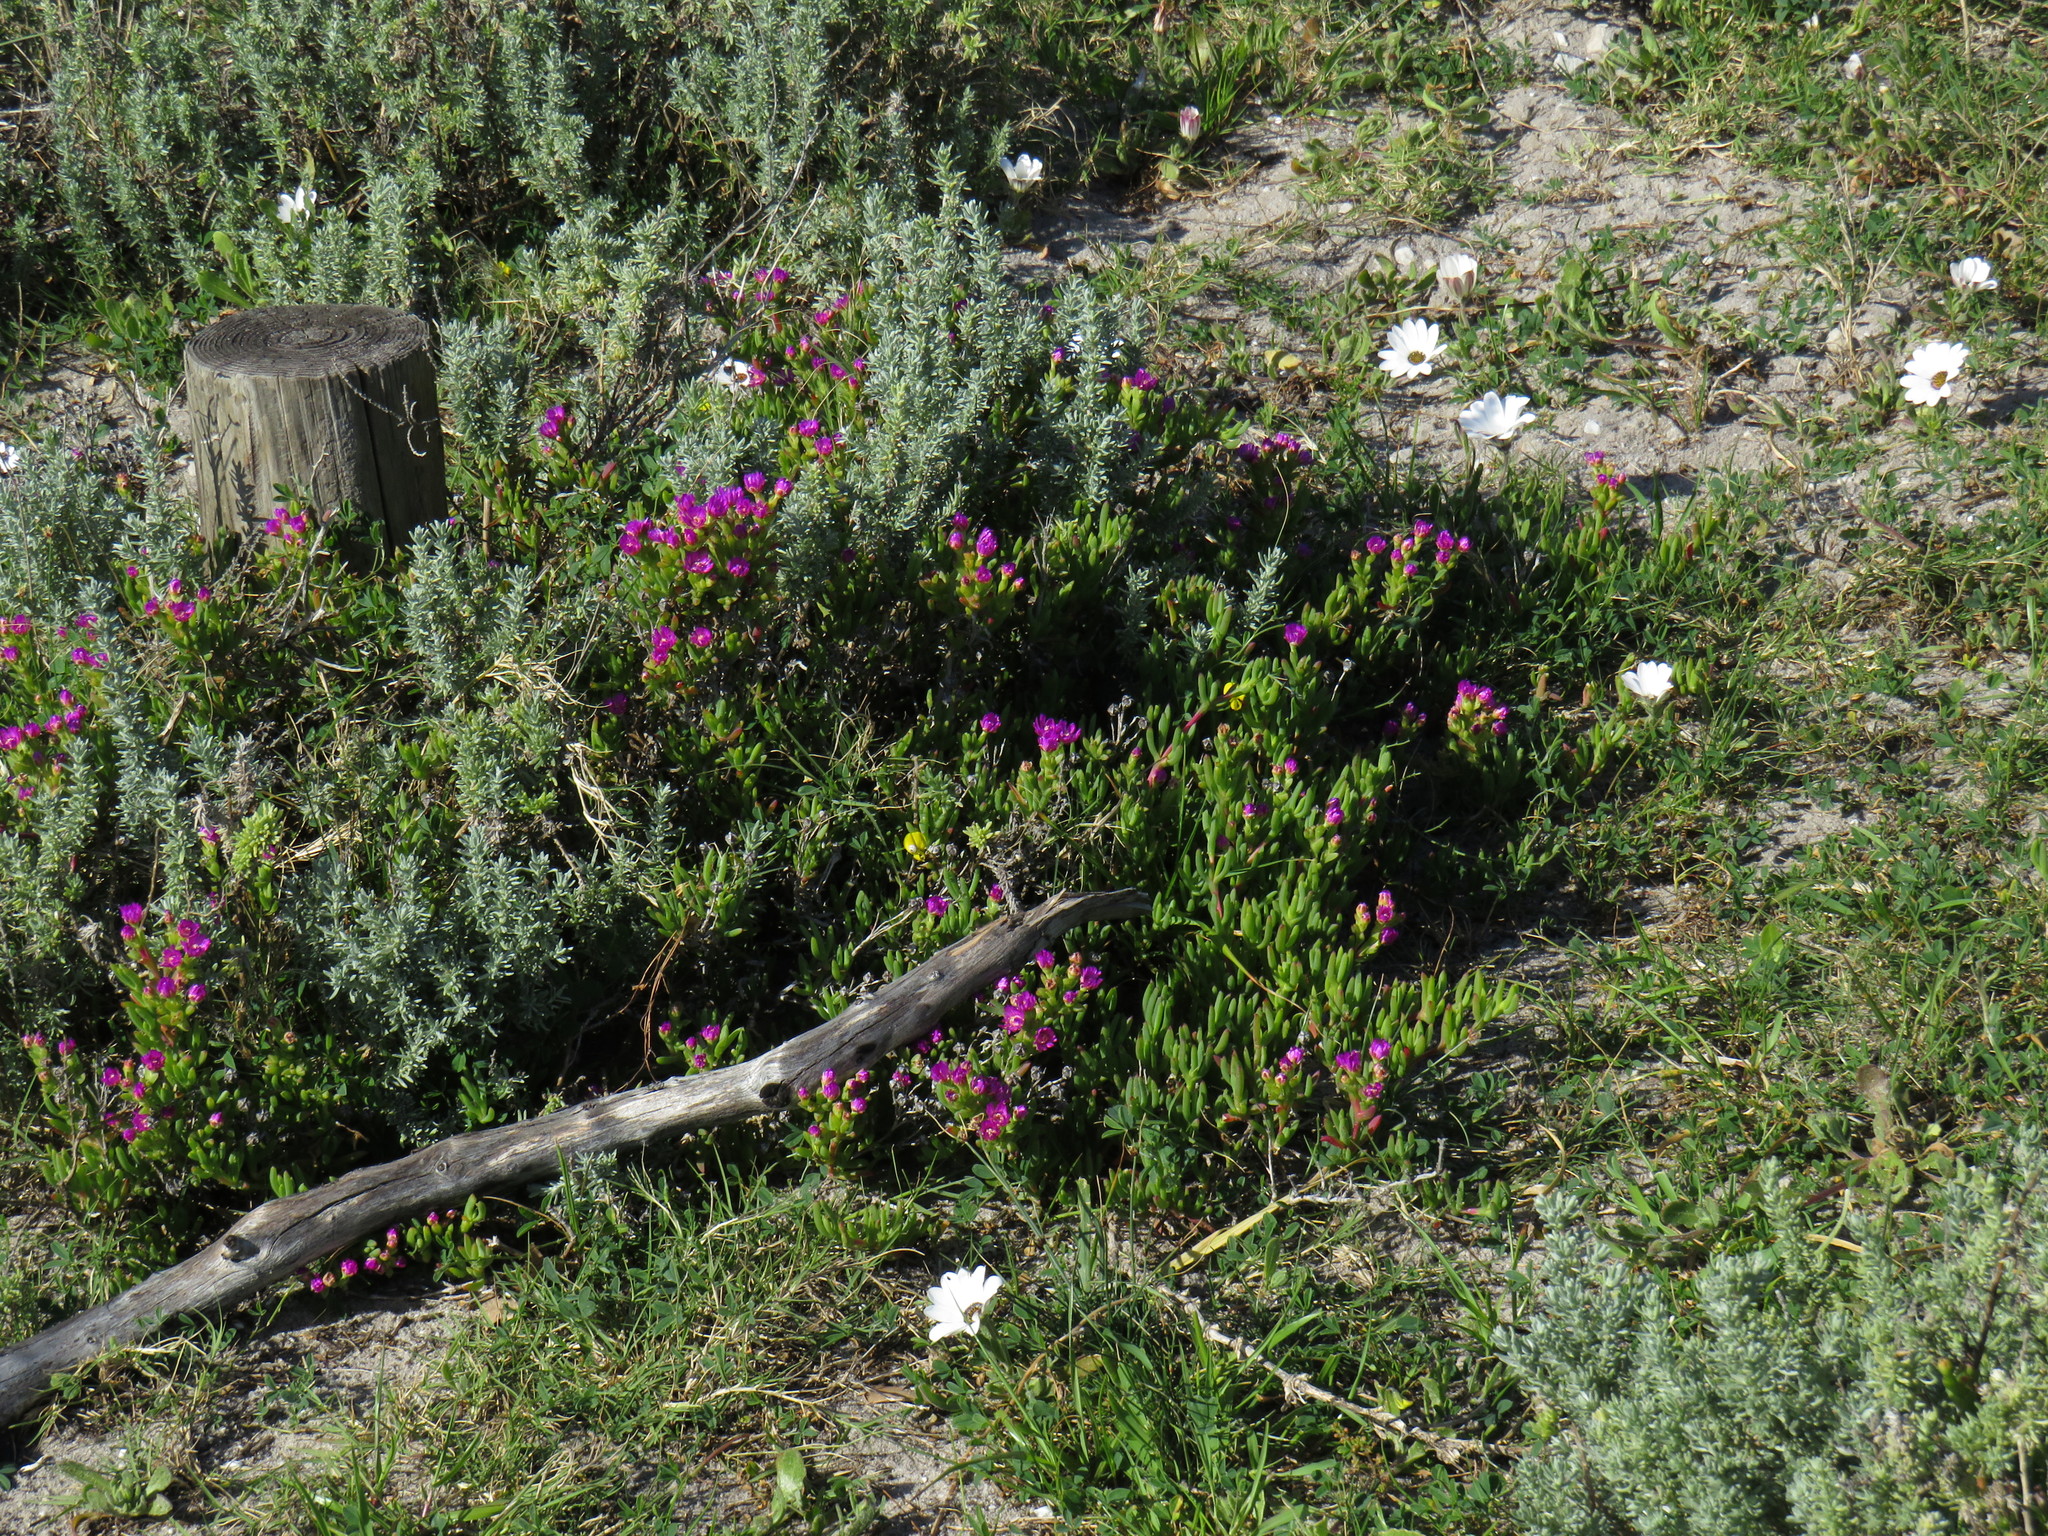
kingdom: Plantae
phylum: Tracheophyta
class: Magnoliopsida
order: Caryophyllales
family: Aizoaceae
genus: Ruschia
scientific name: Ruschia macowanii
